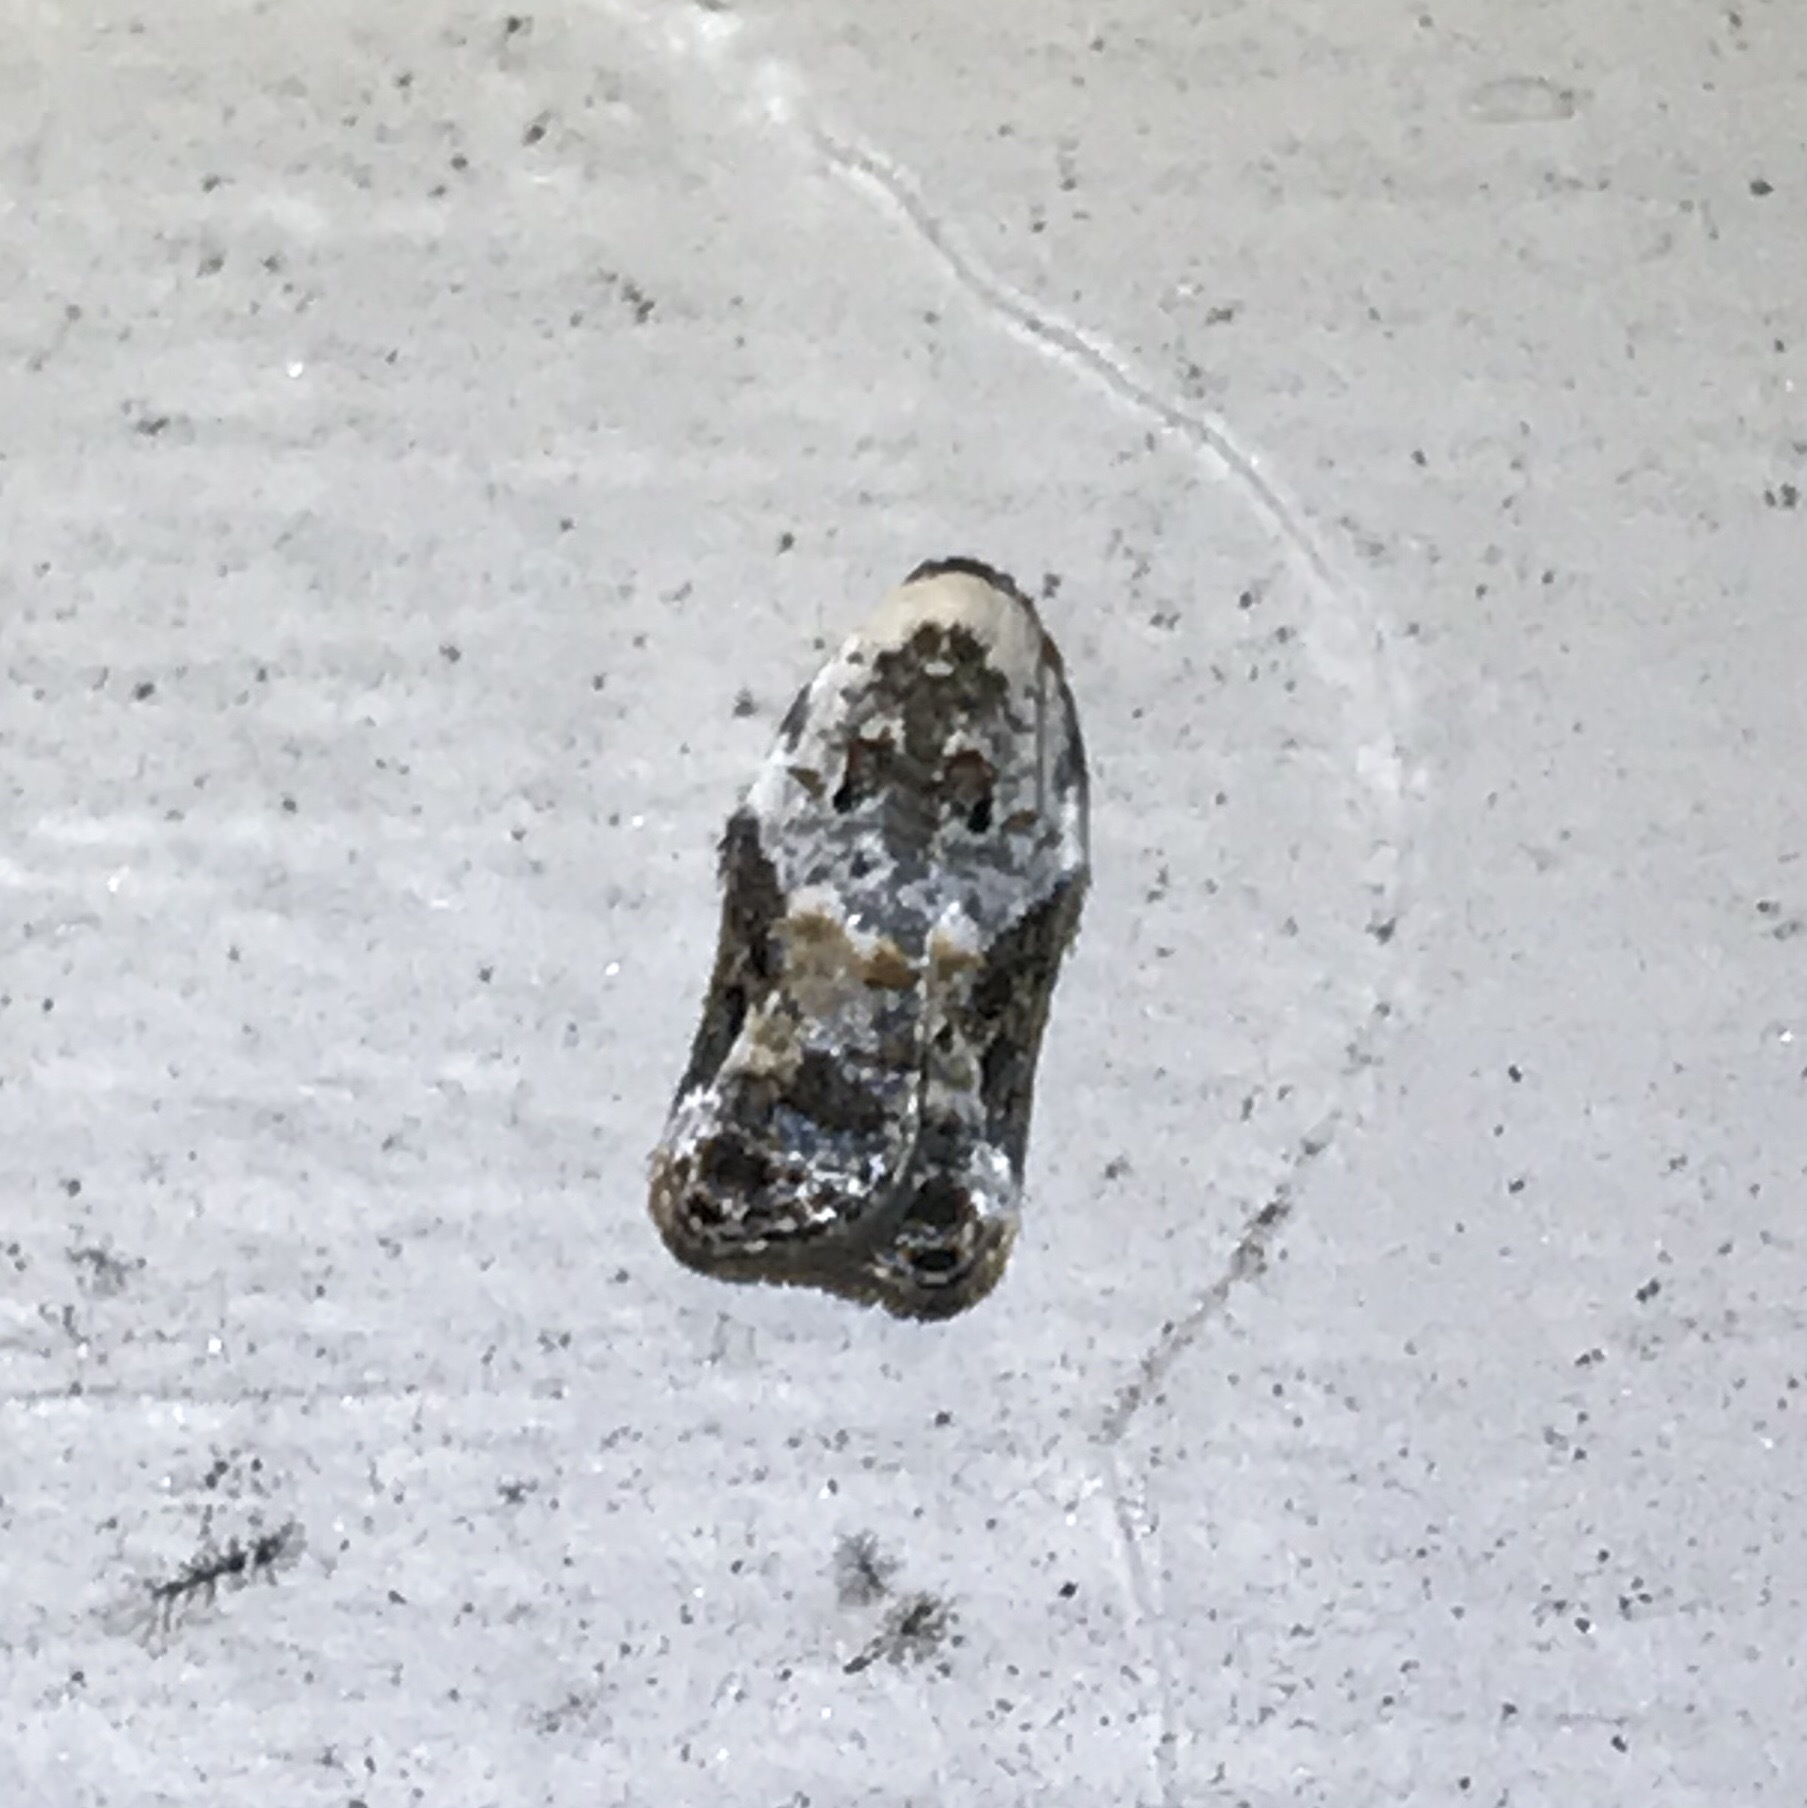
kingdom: Animalia
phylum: Arthropoda
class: Insecta
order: Lepidoptera
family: Tortricidae
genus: Acleris
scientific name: Acleris nivisellana
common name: Snowy-shouldered acleris moth
